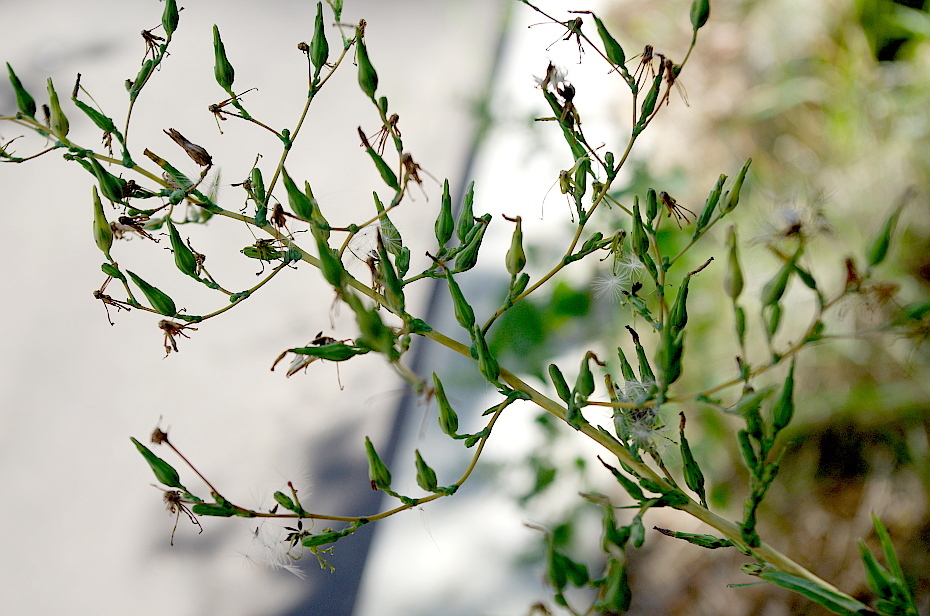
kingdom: Plantae
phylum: Tracheophyta
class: Magnoliopsida
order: Asterales
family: Asteraceae
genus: Lactuca
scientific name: Lactuca serriola
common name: Prickly lettuce
